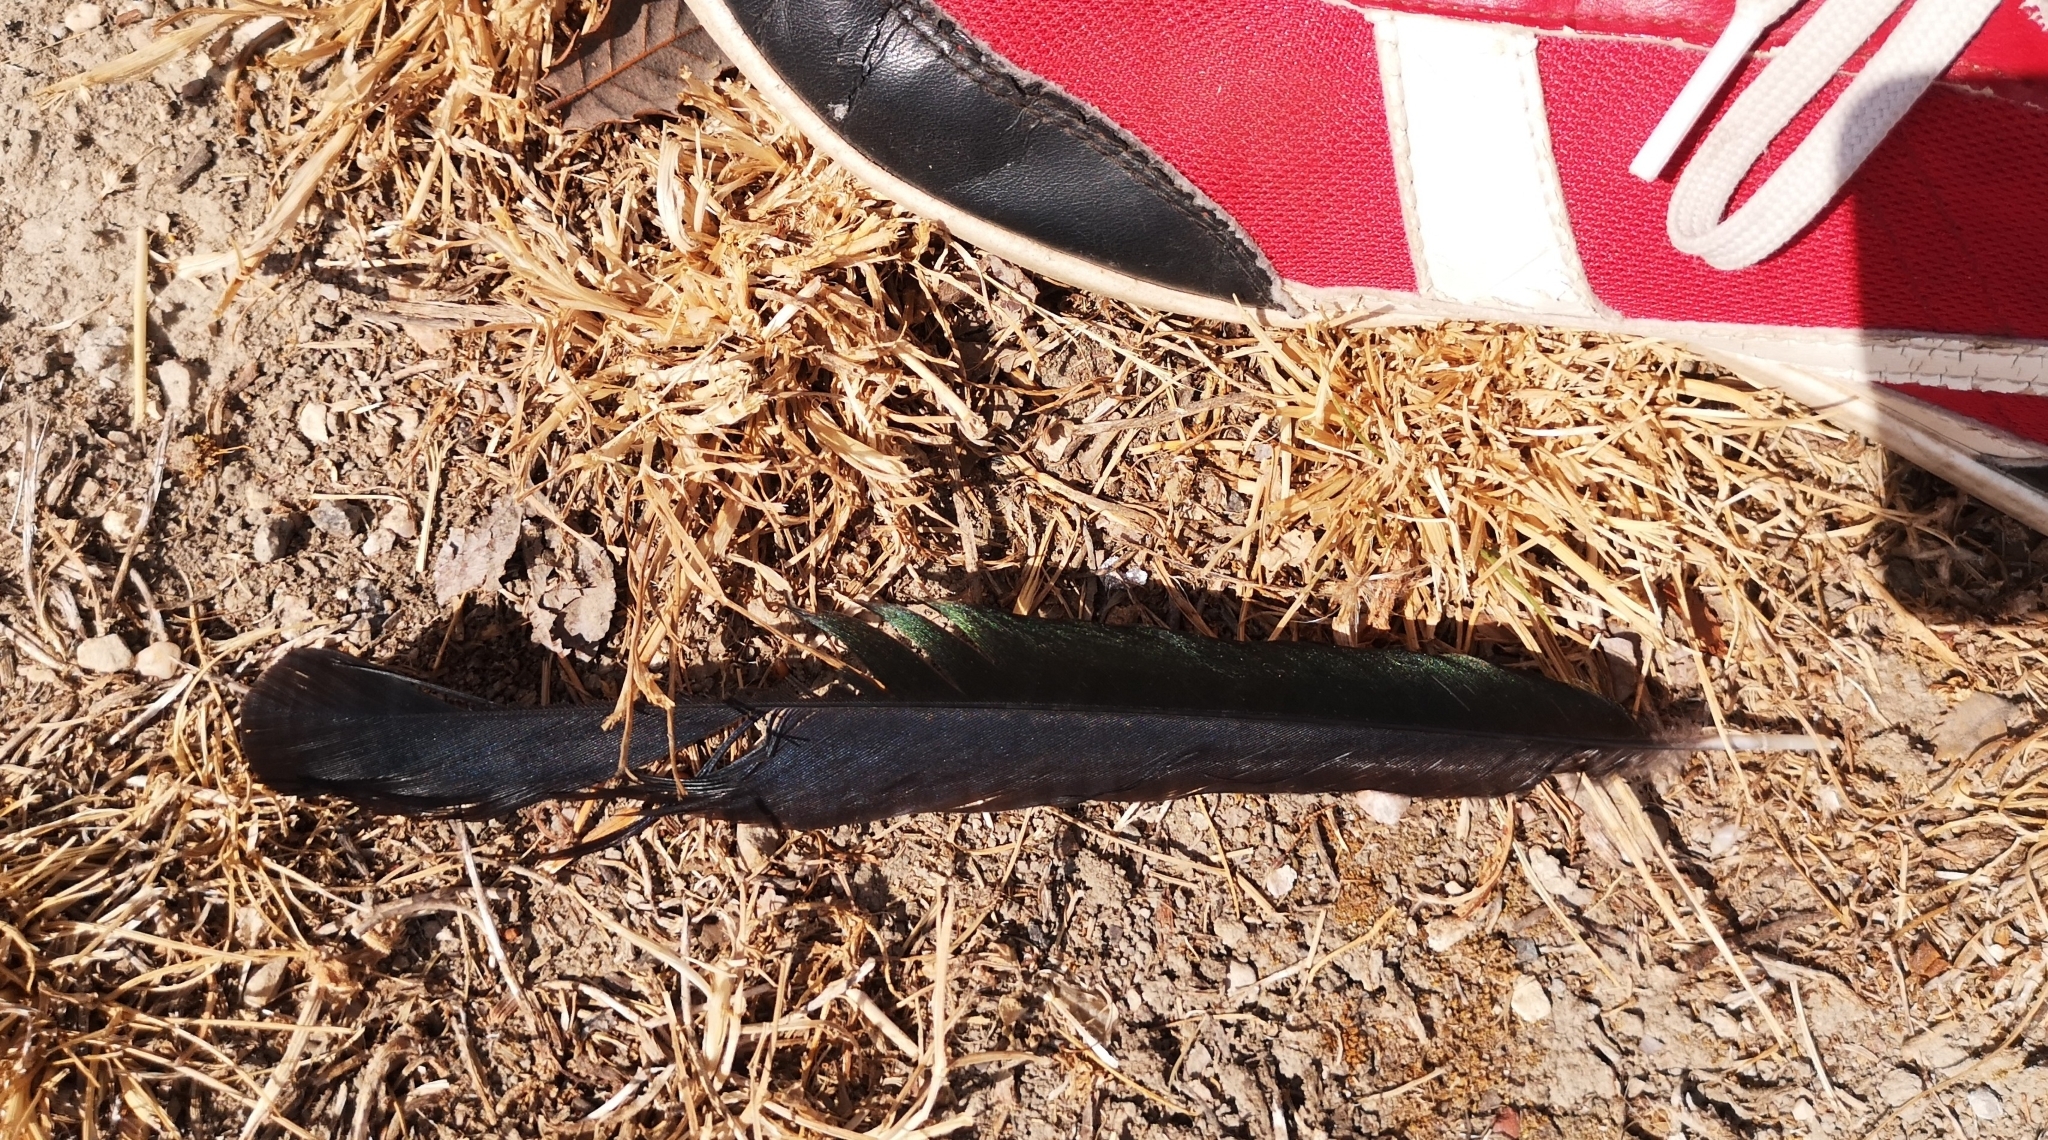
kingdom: Animalia
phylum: Chordata
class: Aves
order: Passeriformes
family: Corvidae
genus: Pica
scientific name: Pica pica
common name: Eurasian magpie
